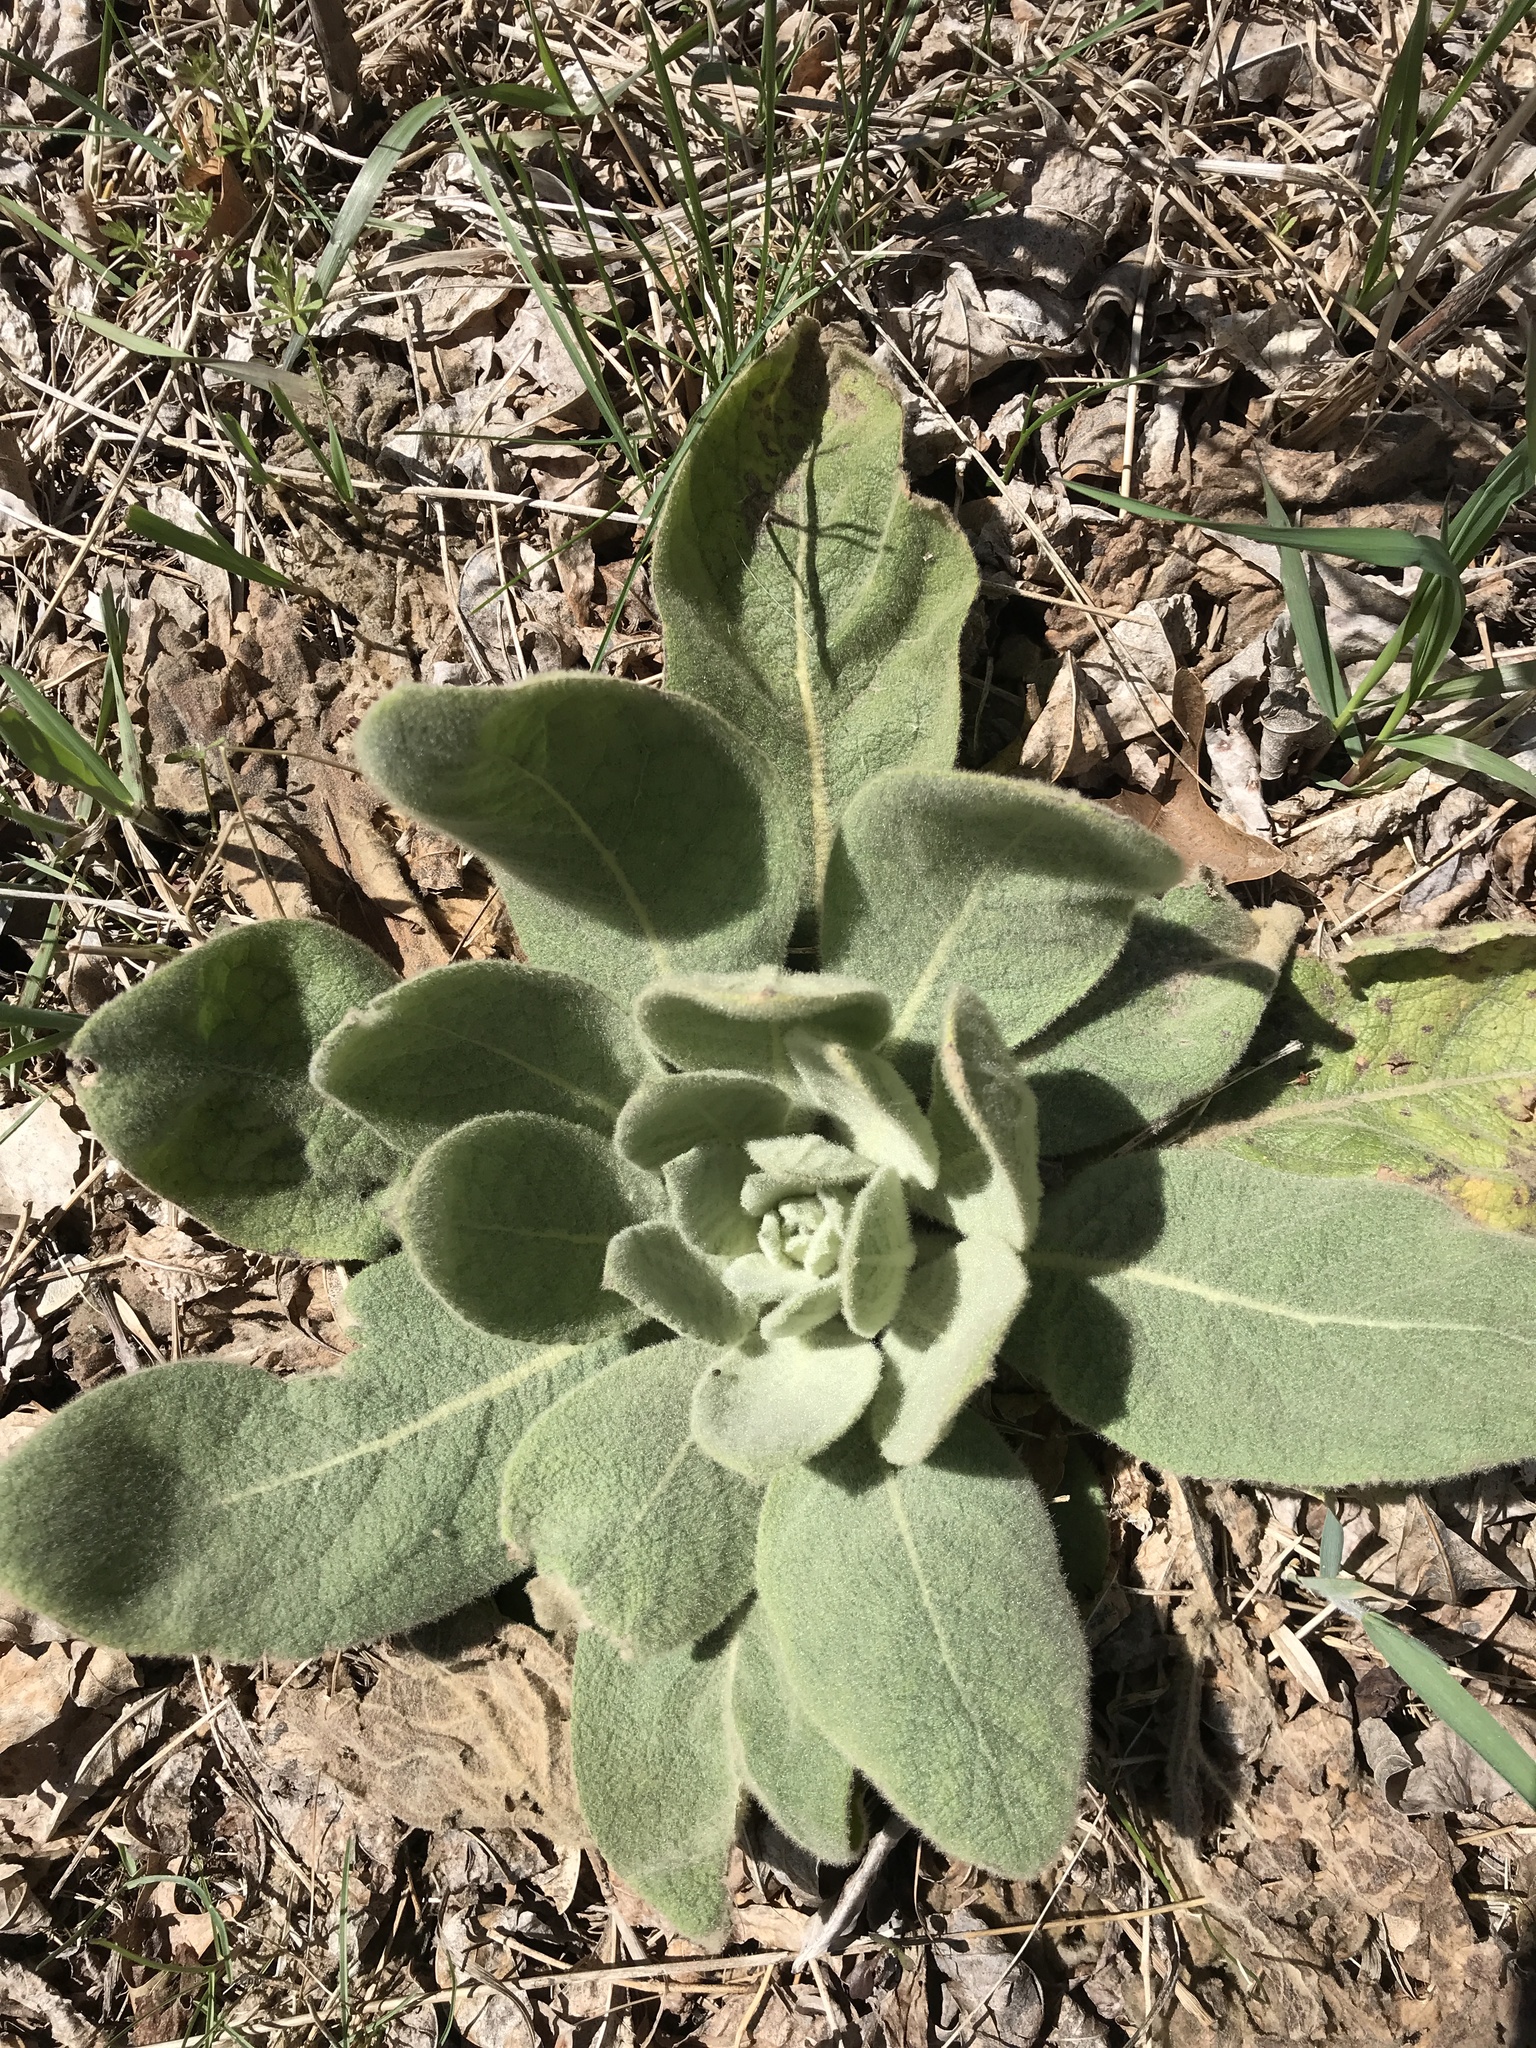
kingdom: Plantae
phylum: Tracheophyta
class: Magnoliopsida
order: Lamiales
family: Scrophulariaceae
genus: Verbascum
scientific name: Verbascum thapsus
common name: Common mullein
